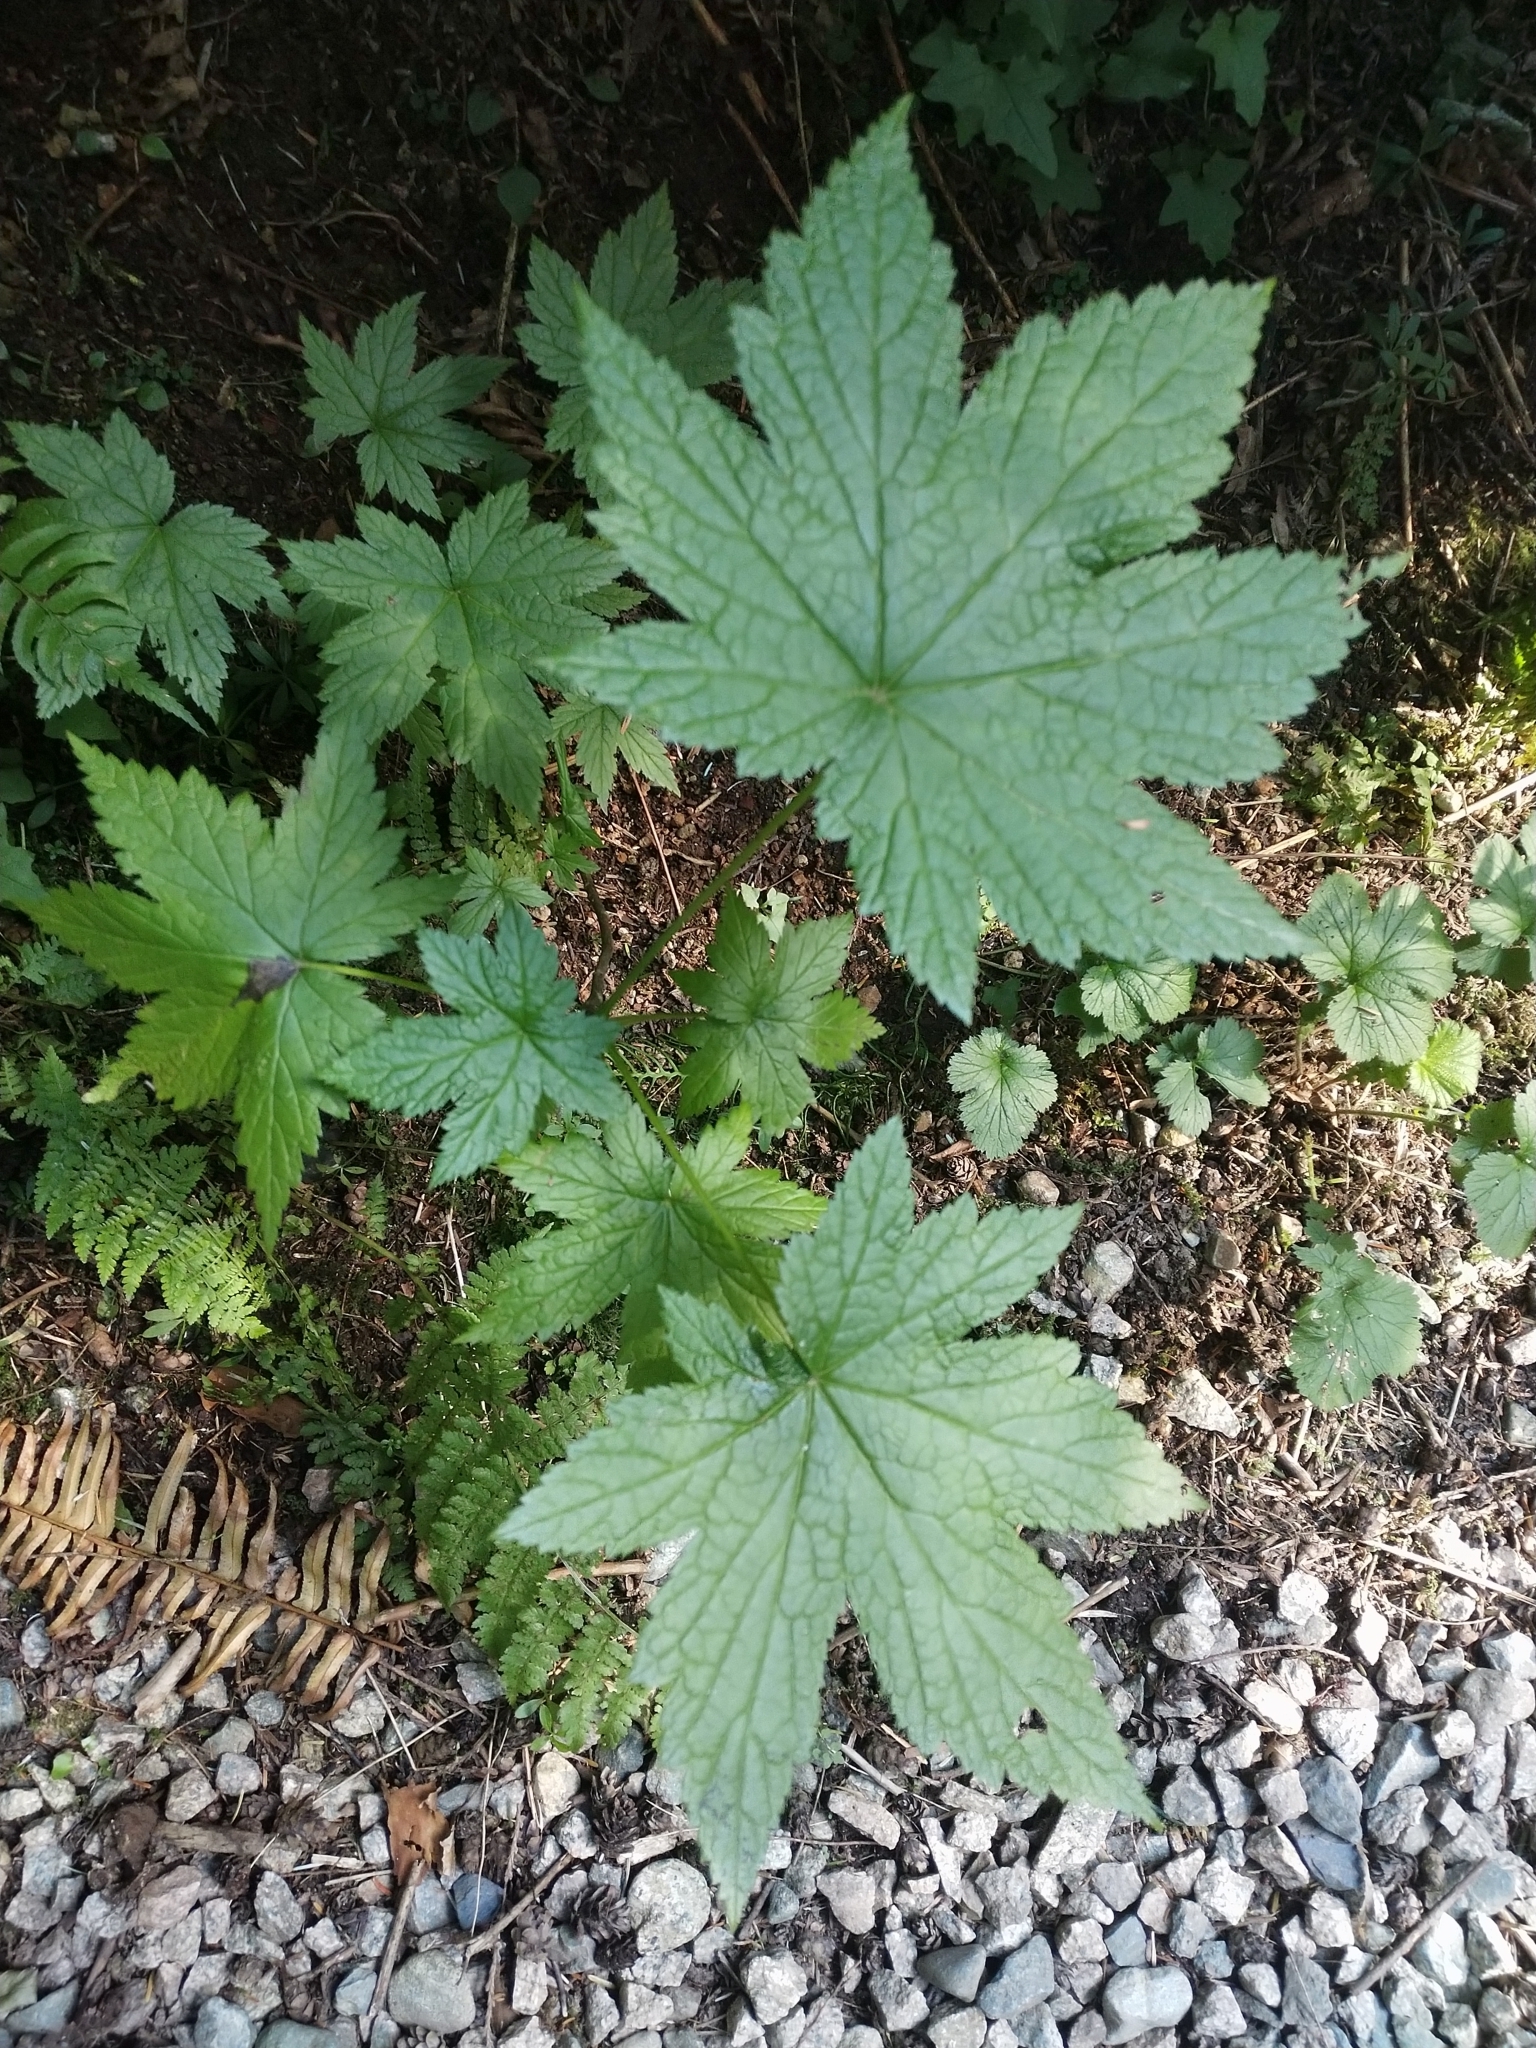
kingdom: Plantae
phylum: Tracheophyta
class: Magnoliopsida
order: Saxifragales
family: Grossulariaceae
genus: Ribes
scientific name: Ribes bracteosum
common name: California black currant
